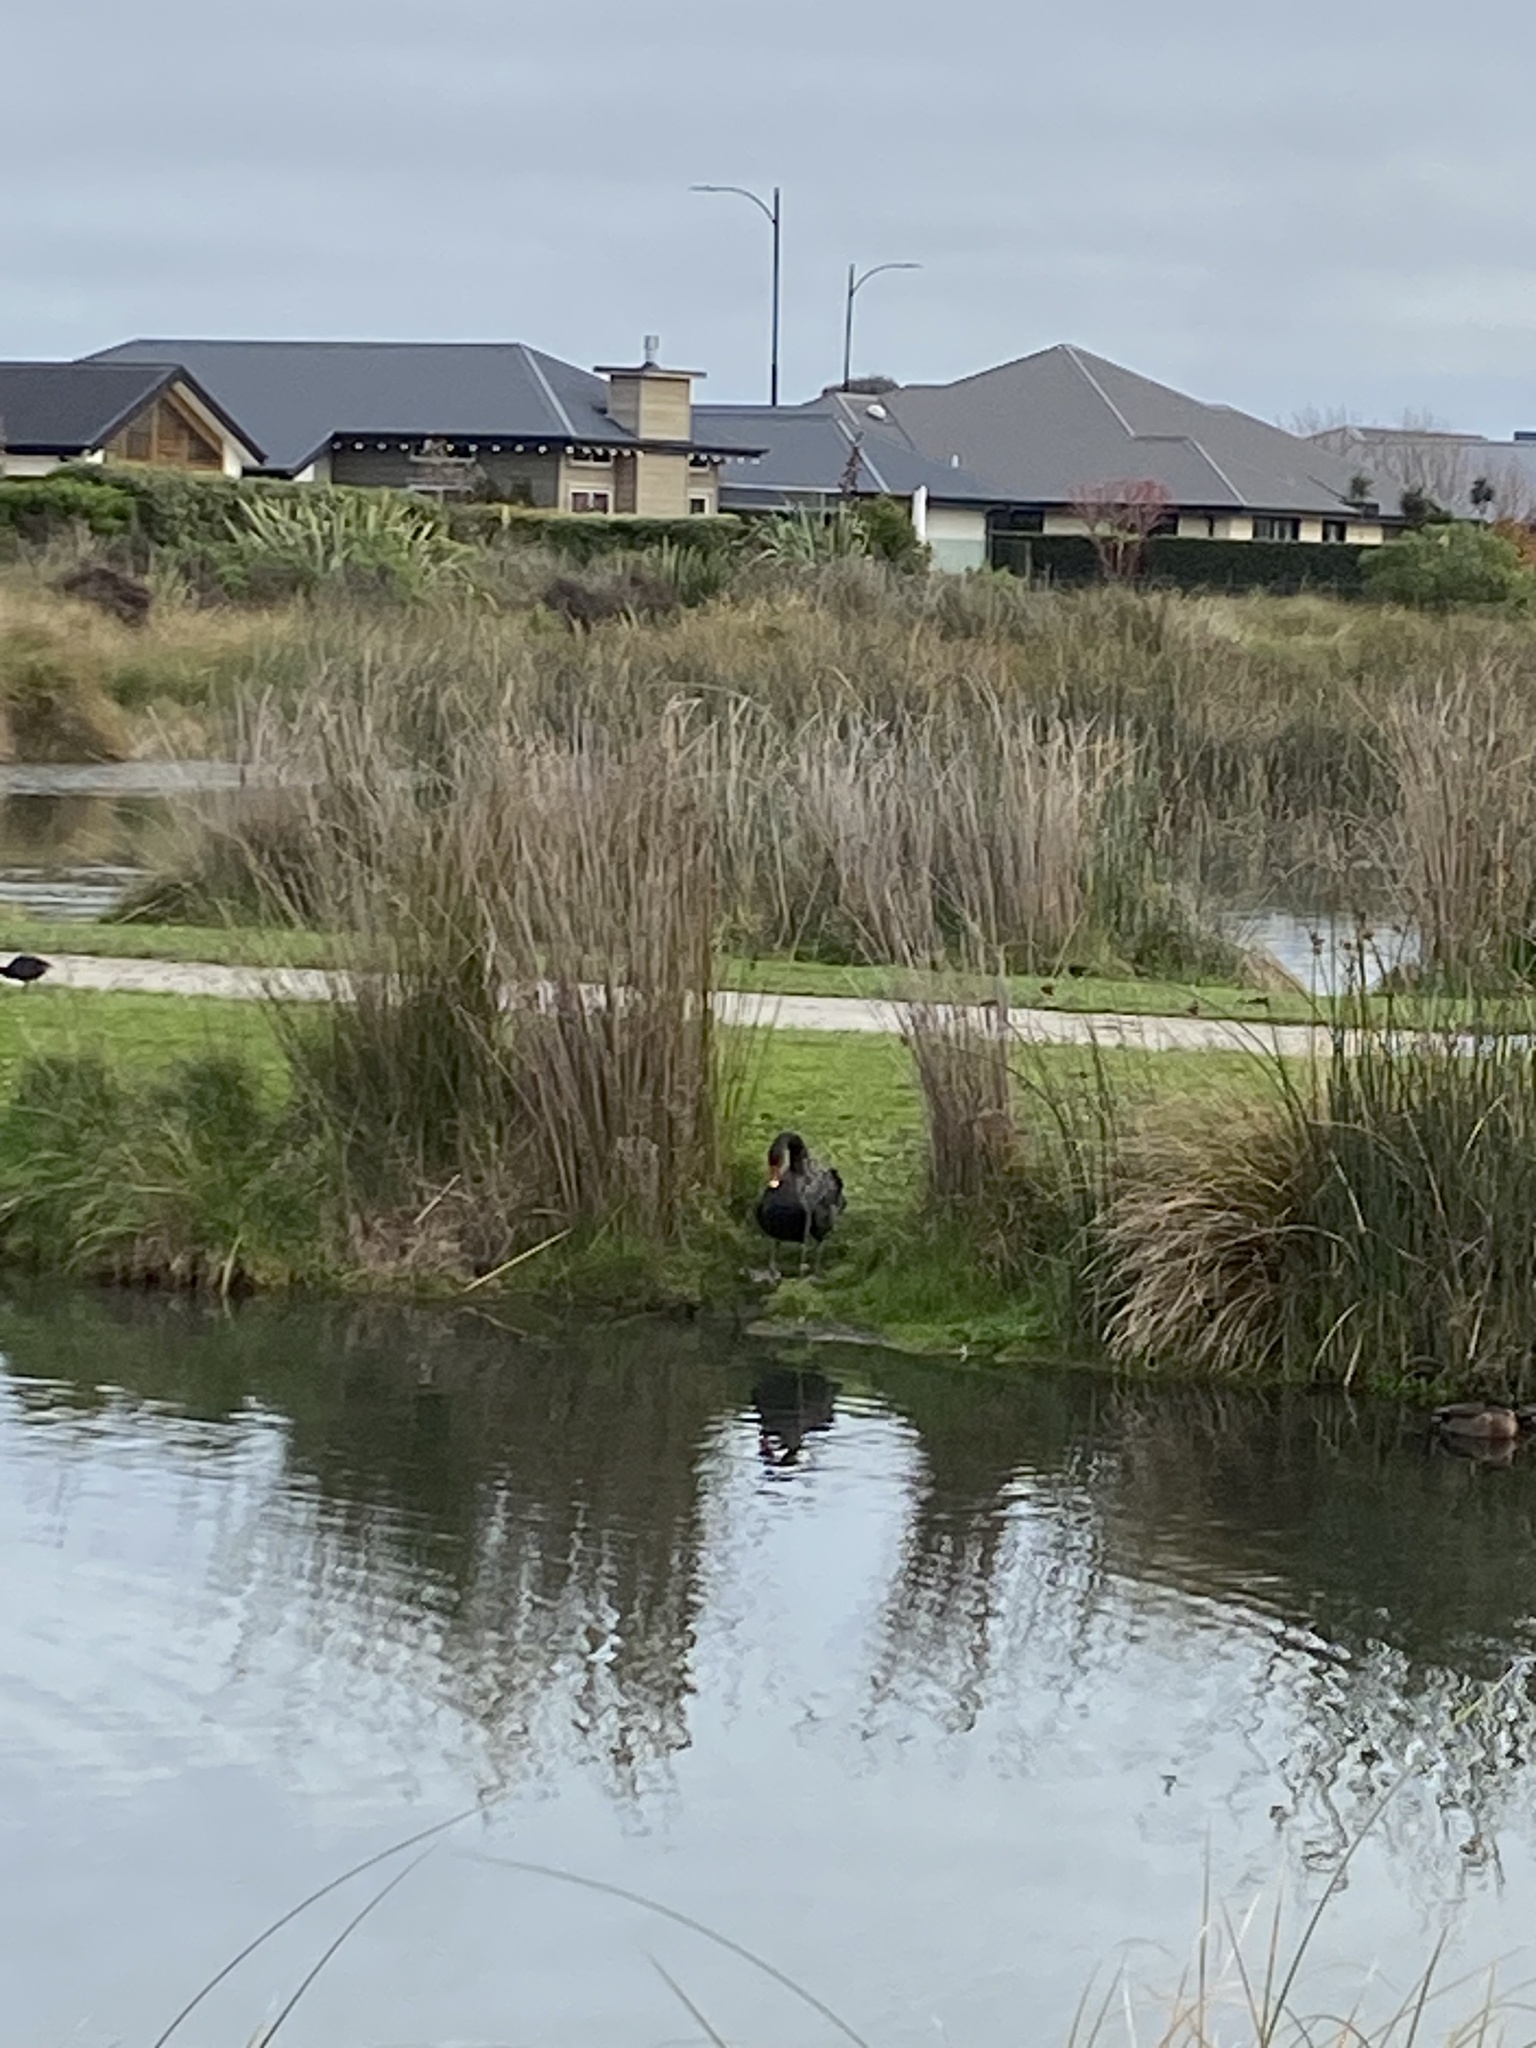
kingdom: Animalia
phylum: Chordata
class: Aves
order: Anseriformes
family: Anatidae
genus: Cygnus
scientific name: Cygnus atratus
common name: Black swan
